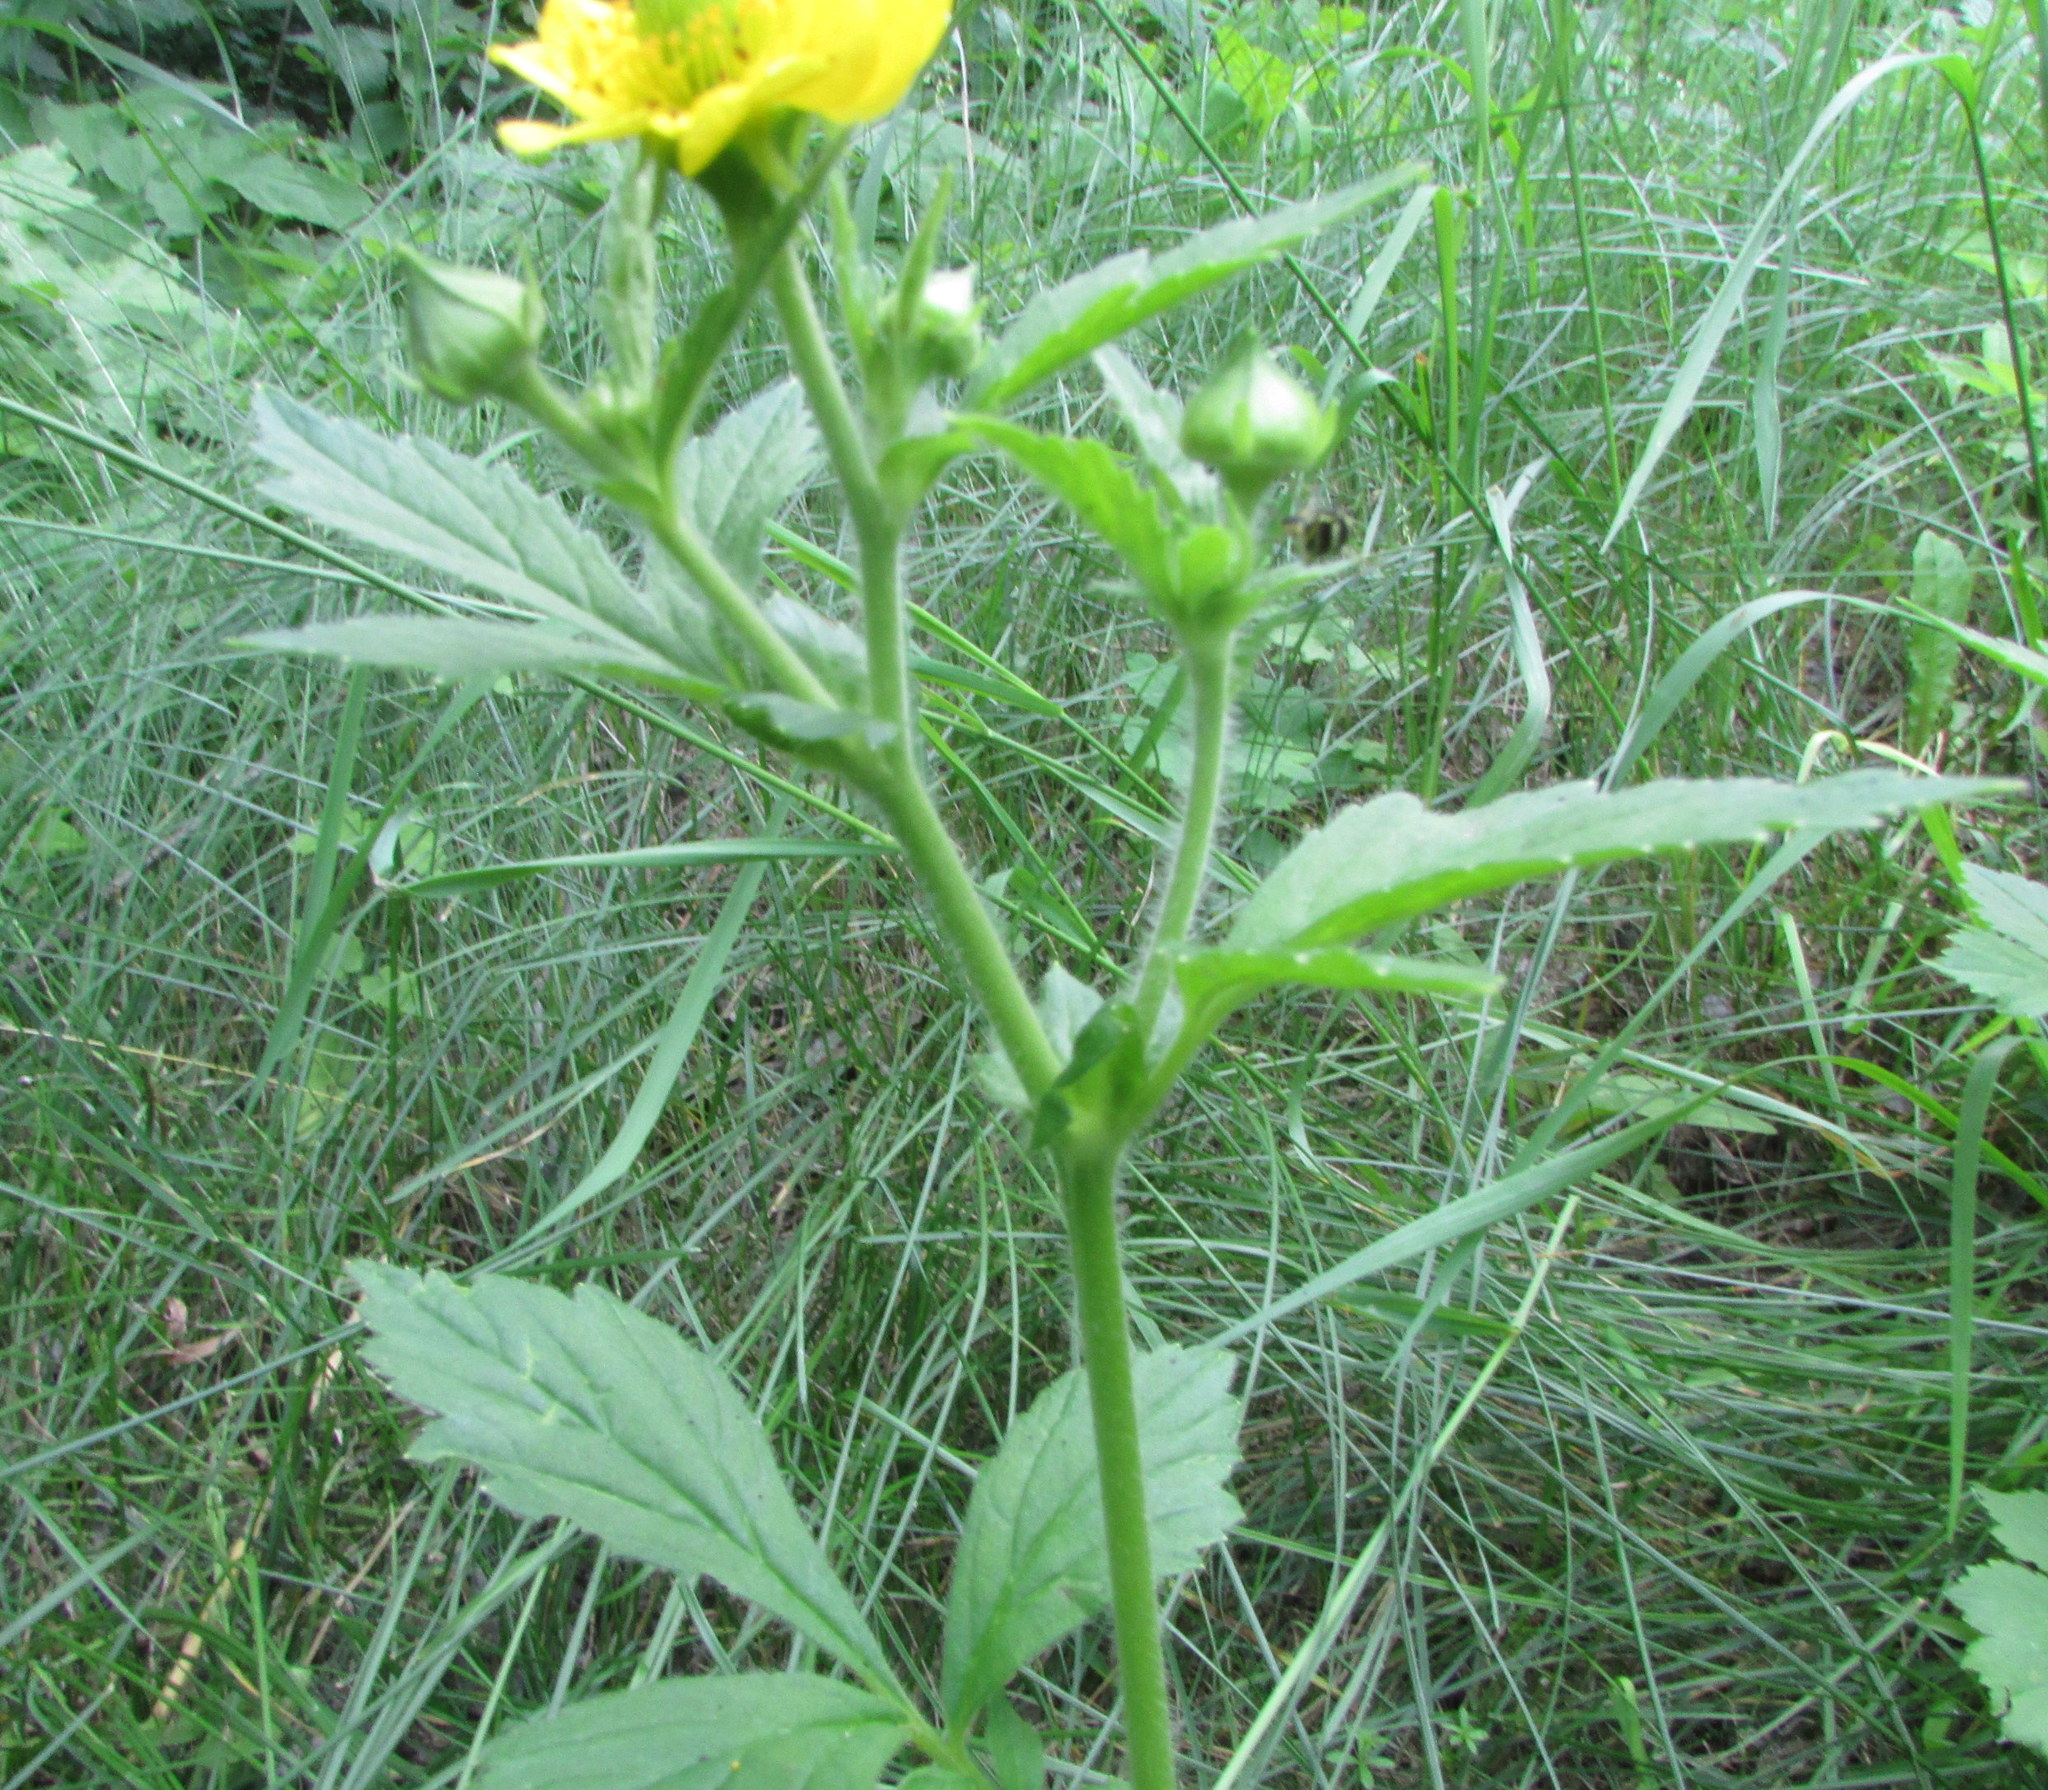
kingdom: Plantae
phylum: Tracheophyta
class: Magnoliopsida
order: Rosales
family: Rosaceae
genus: Geum
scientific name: Geum aleppicum
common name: Yellow avens
